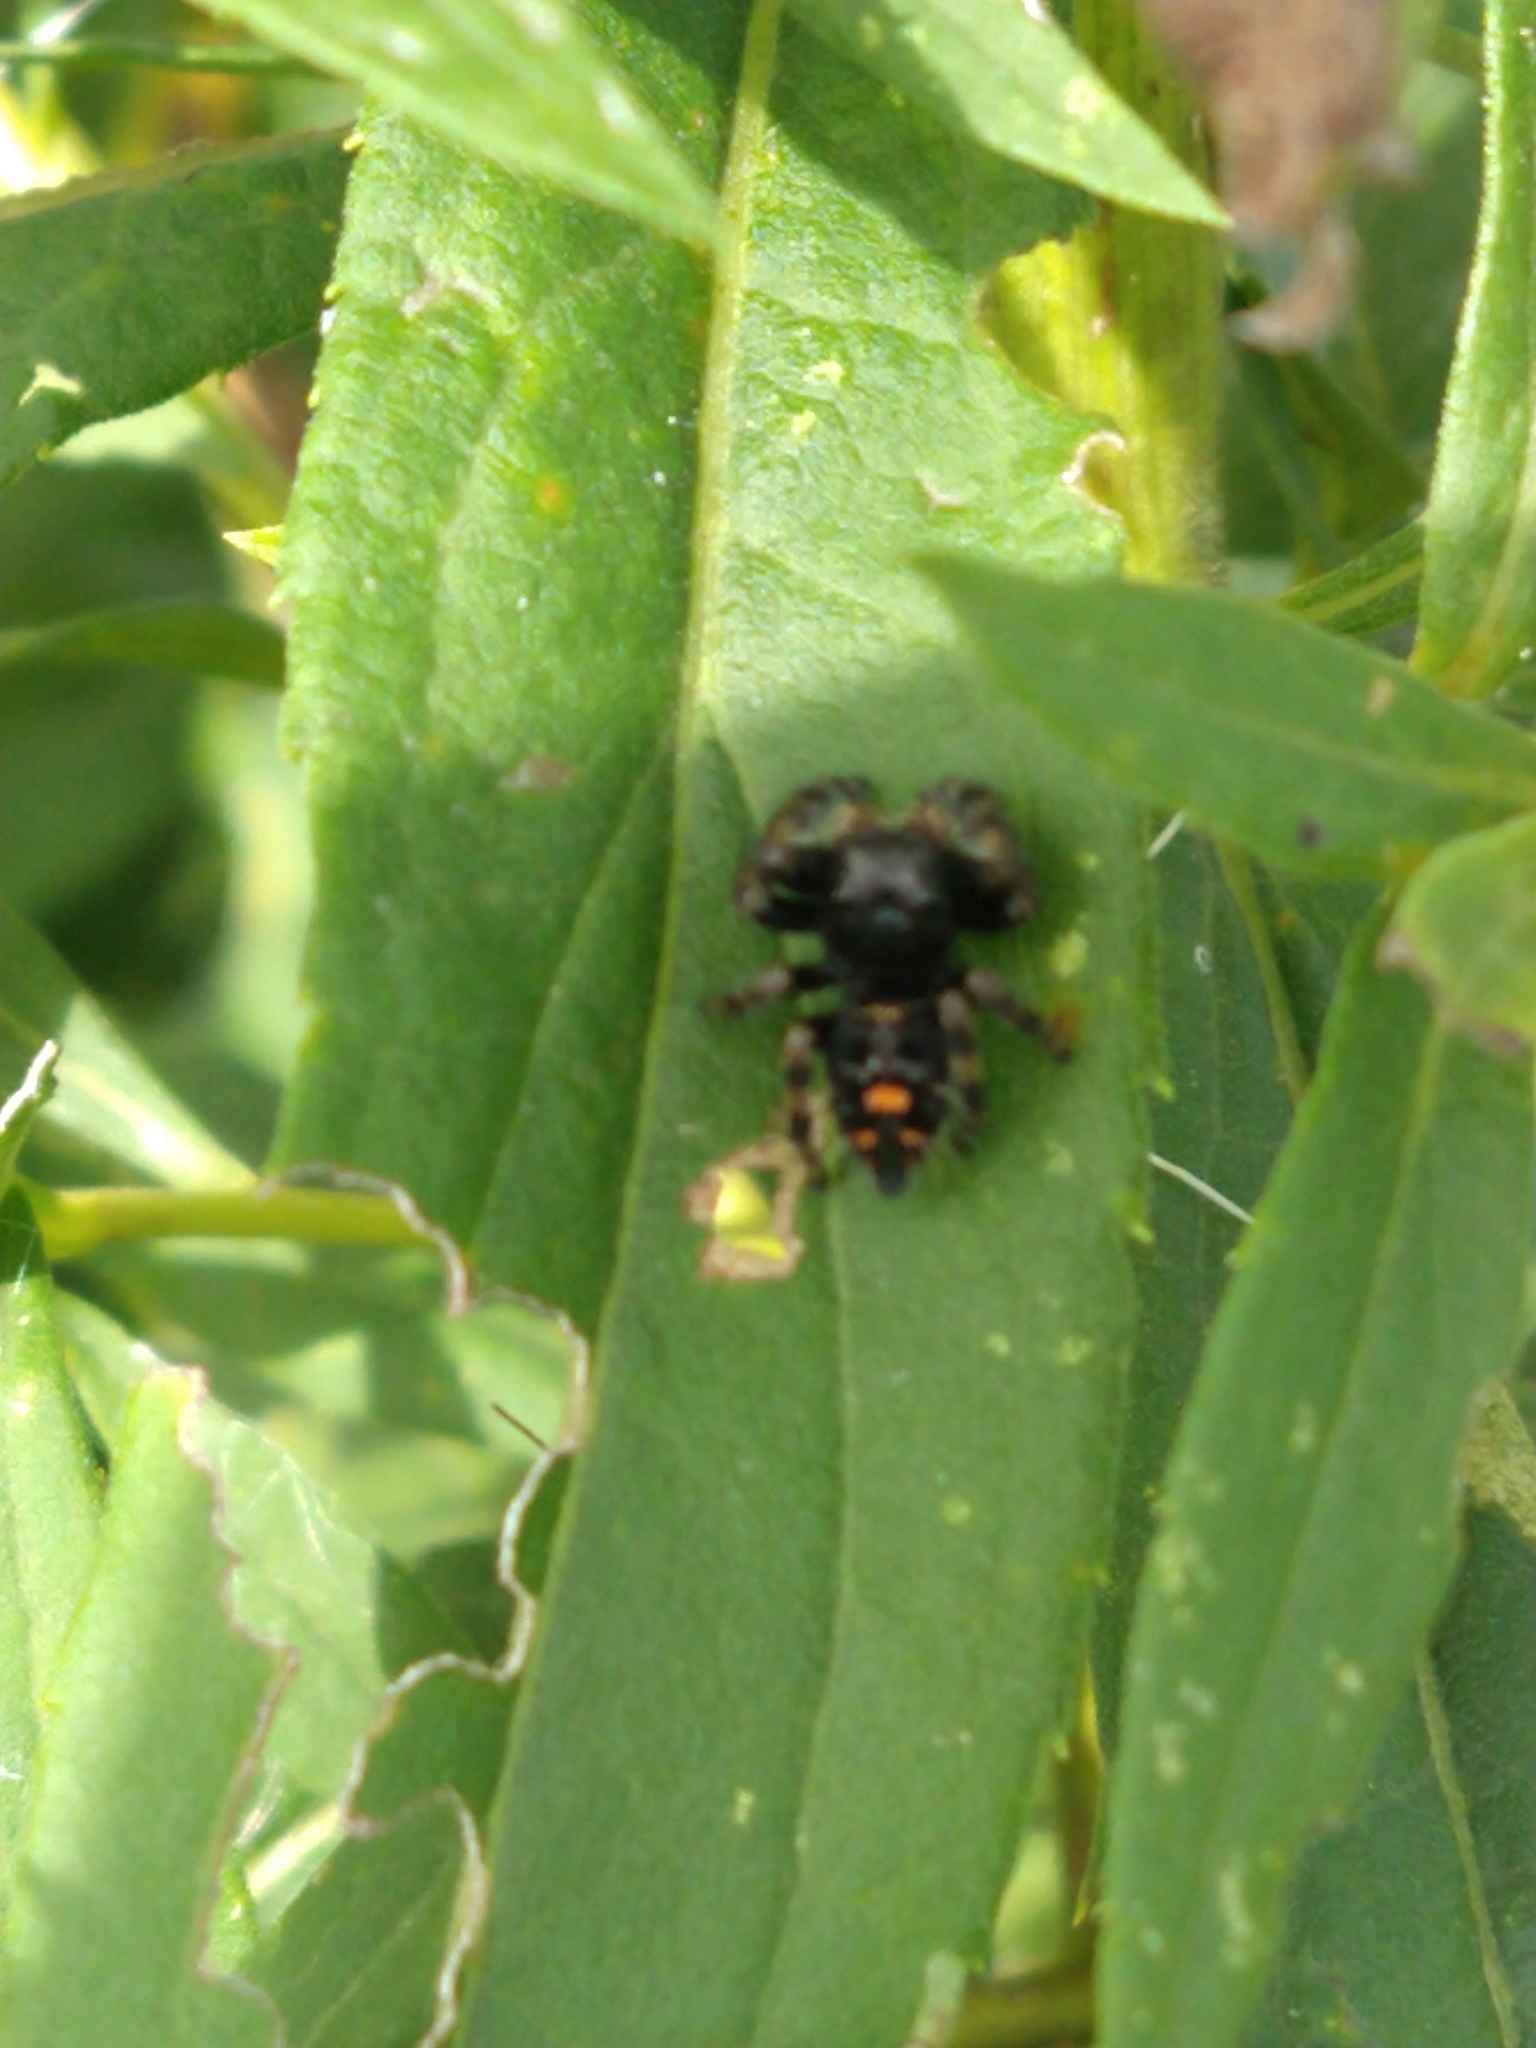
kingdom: Animalia
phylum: Arthropoda
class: Arachnida
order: Araneae
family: Salticidae
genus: Phidippus
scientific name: Phidippus audax
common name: Bold jumper
